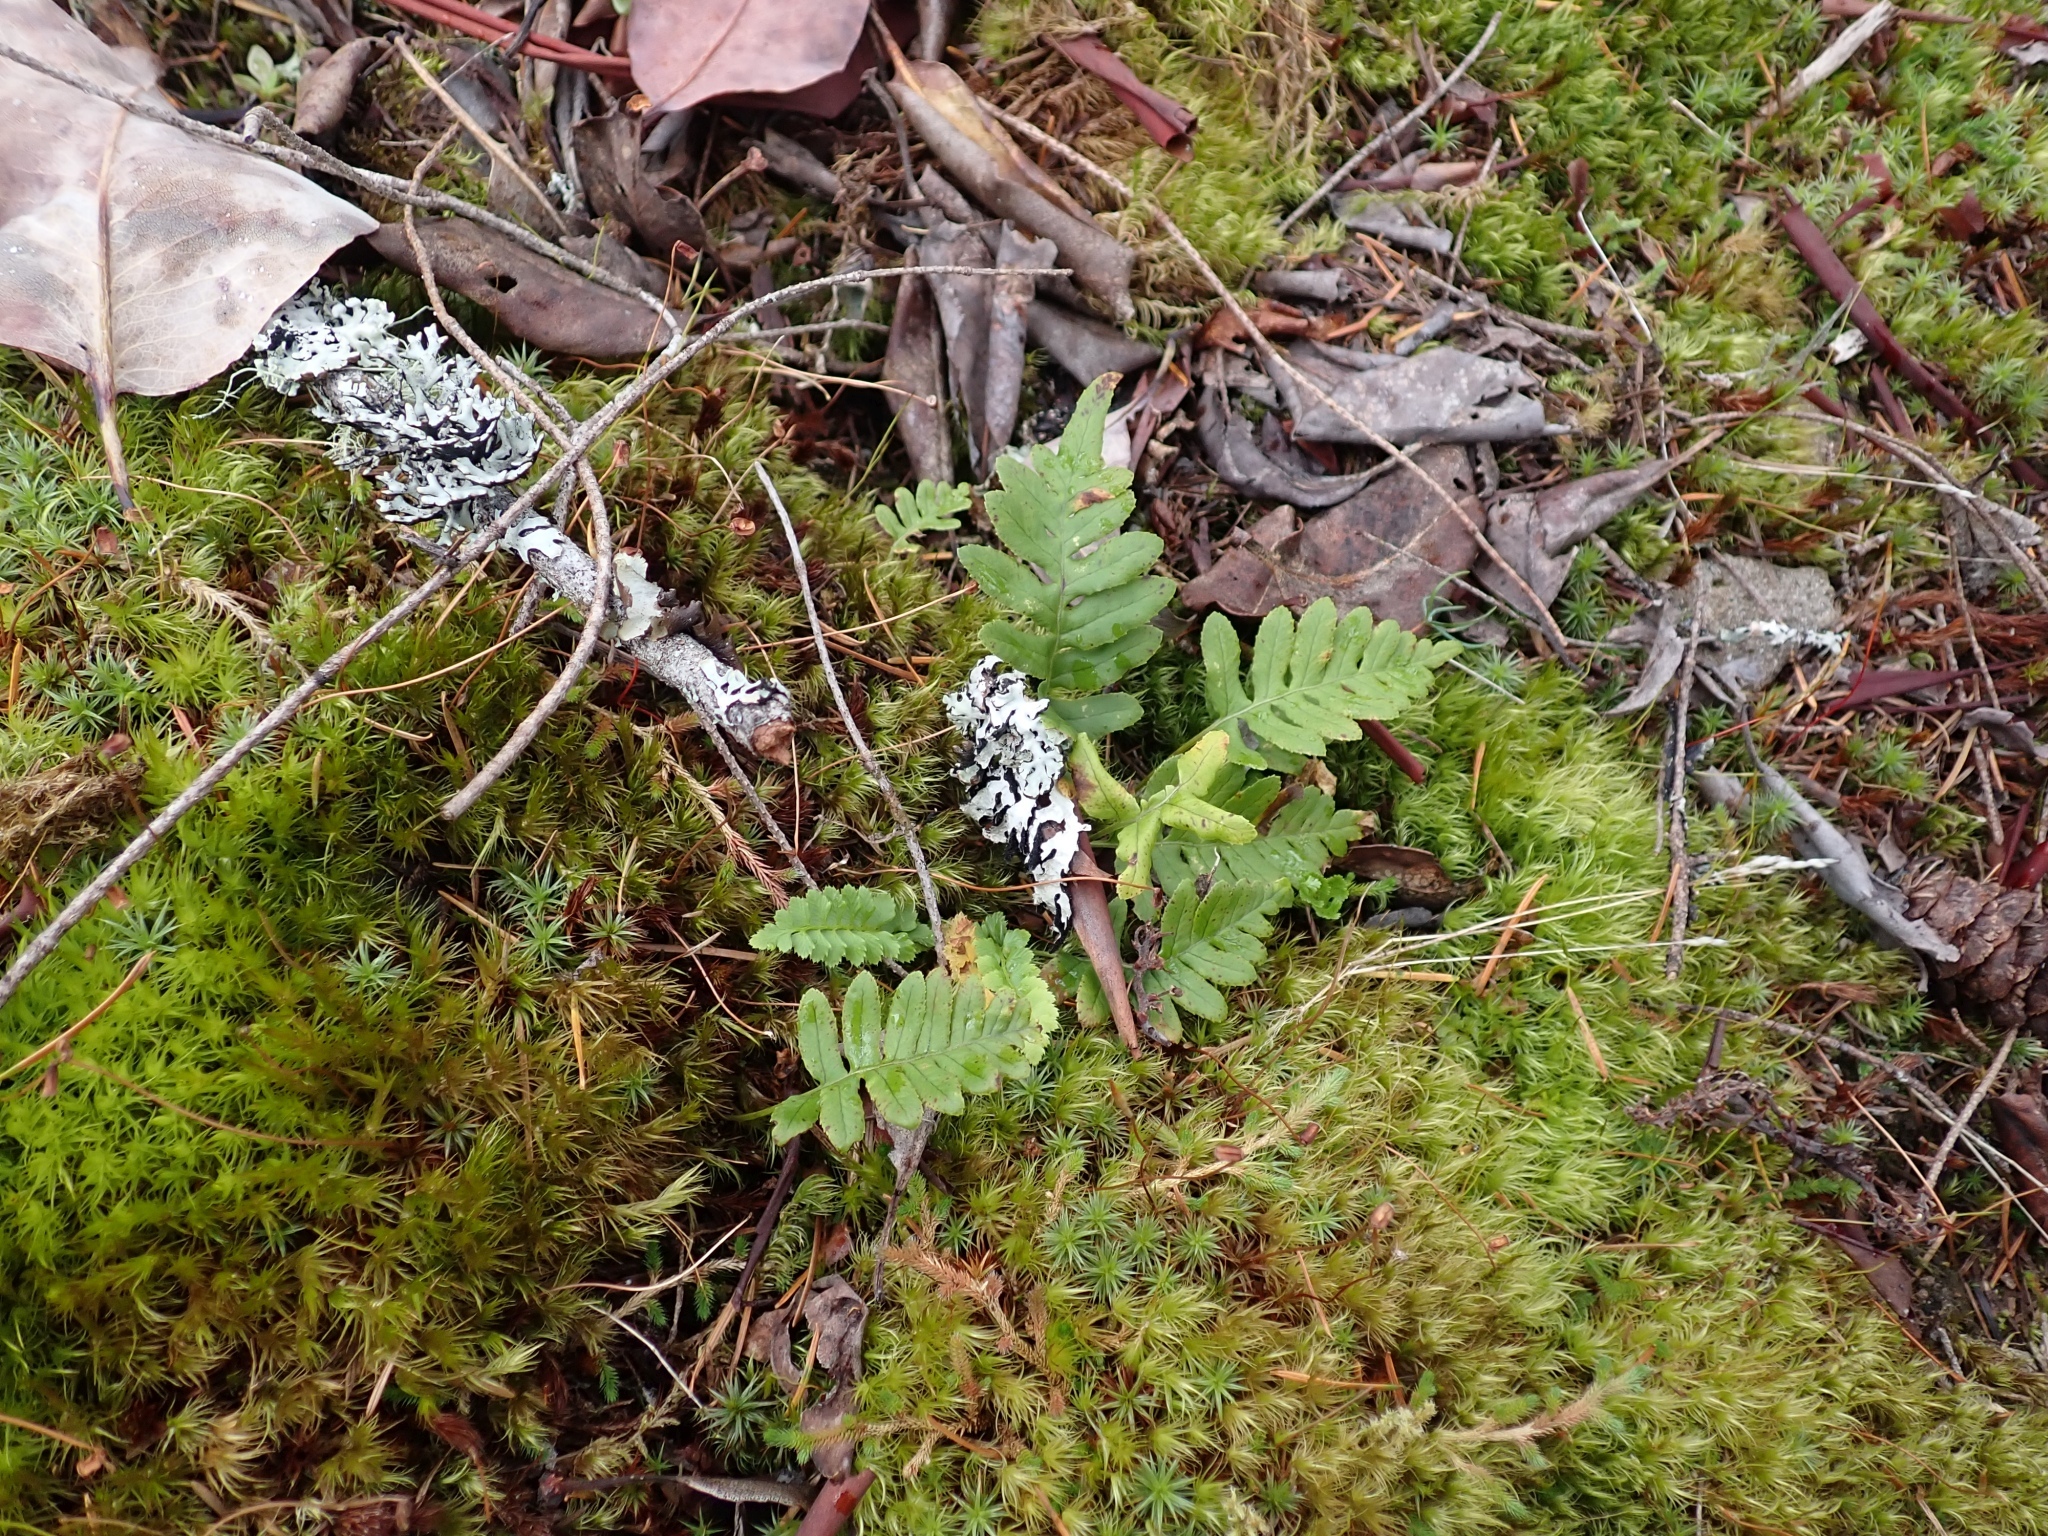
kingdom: Plantae
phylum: Tracheophyta
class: Polypodiopsida
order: Polypodiales
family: Polypodiaceae
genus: Polypodium
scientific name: Polypodium glycyrrhiza
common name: Licorice fern
